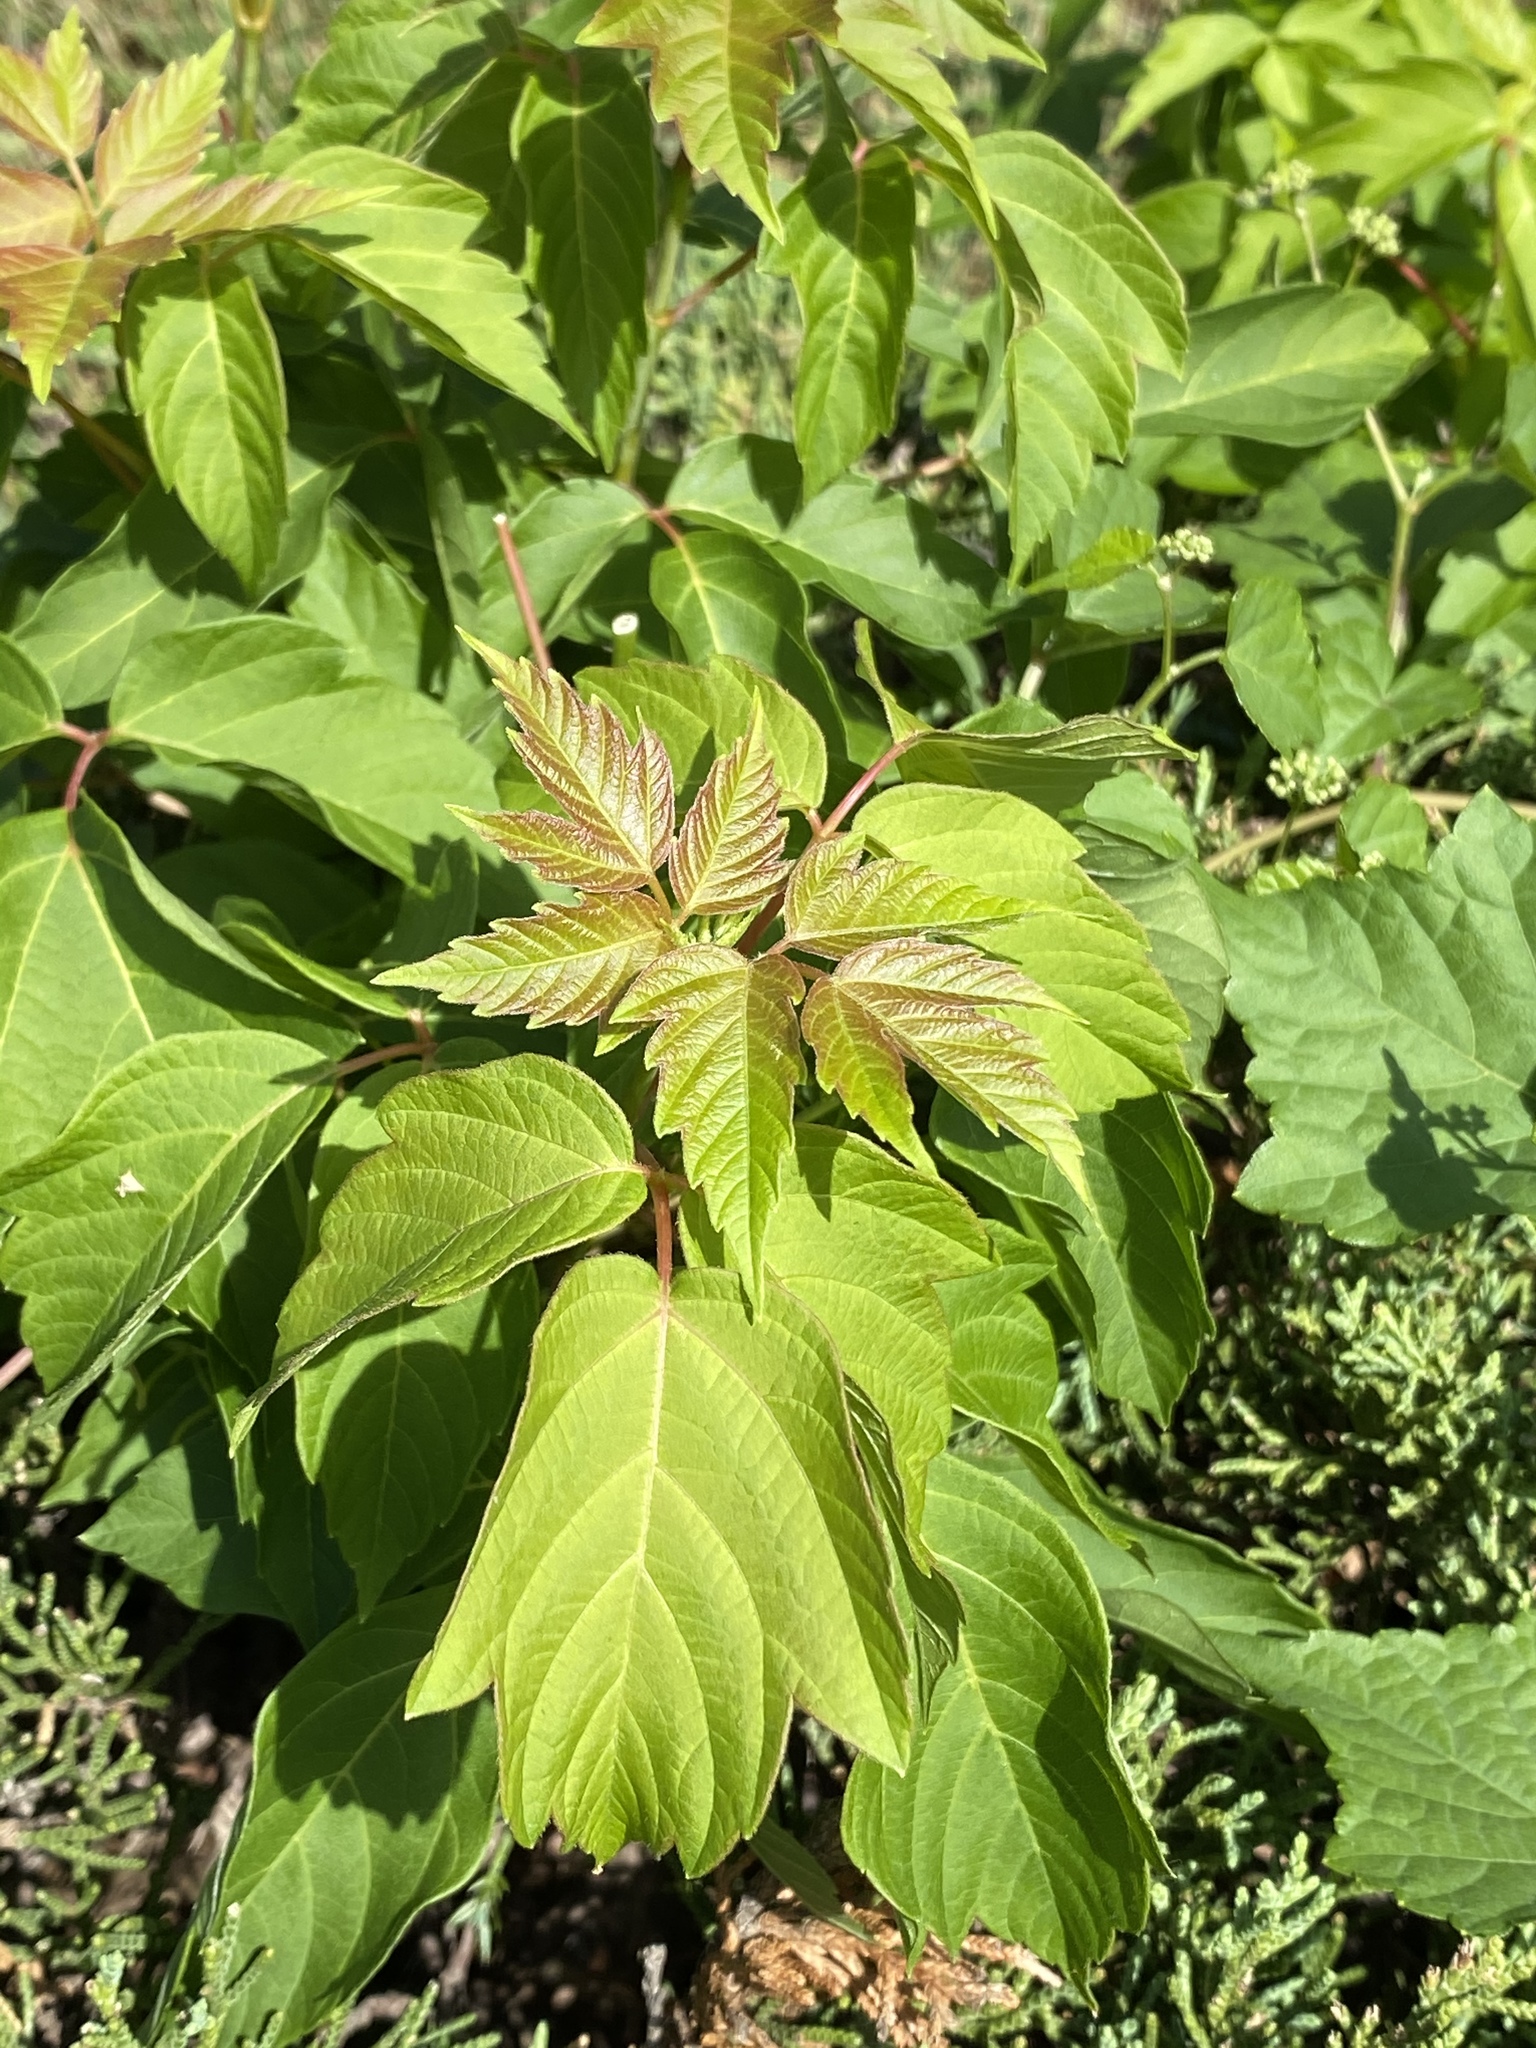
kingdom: Plantae
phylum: Tracheophyta
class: Magnoliopsida
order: Sapindales
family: Sapindaceae
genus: Acer
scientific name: Acer negundo
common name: Ashleaf maple
